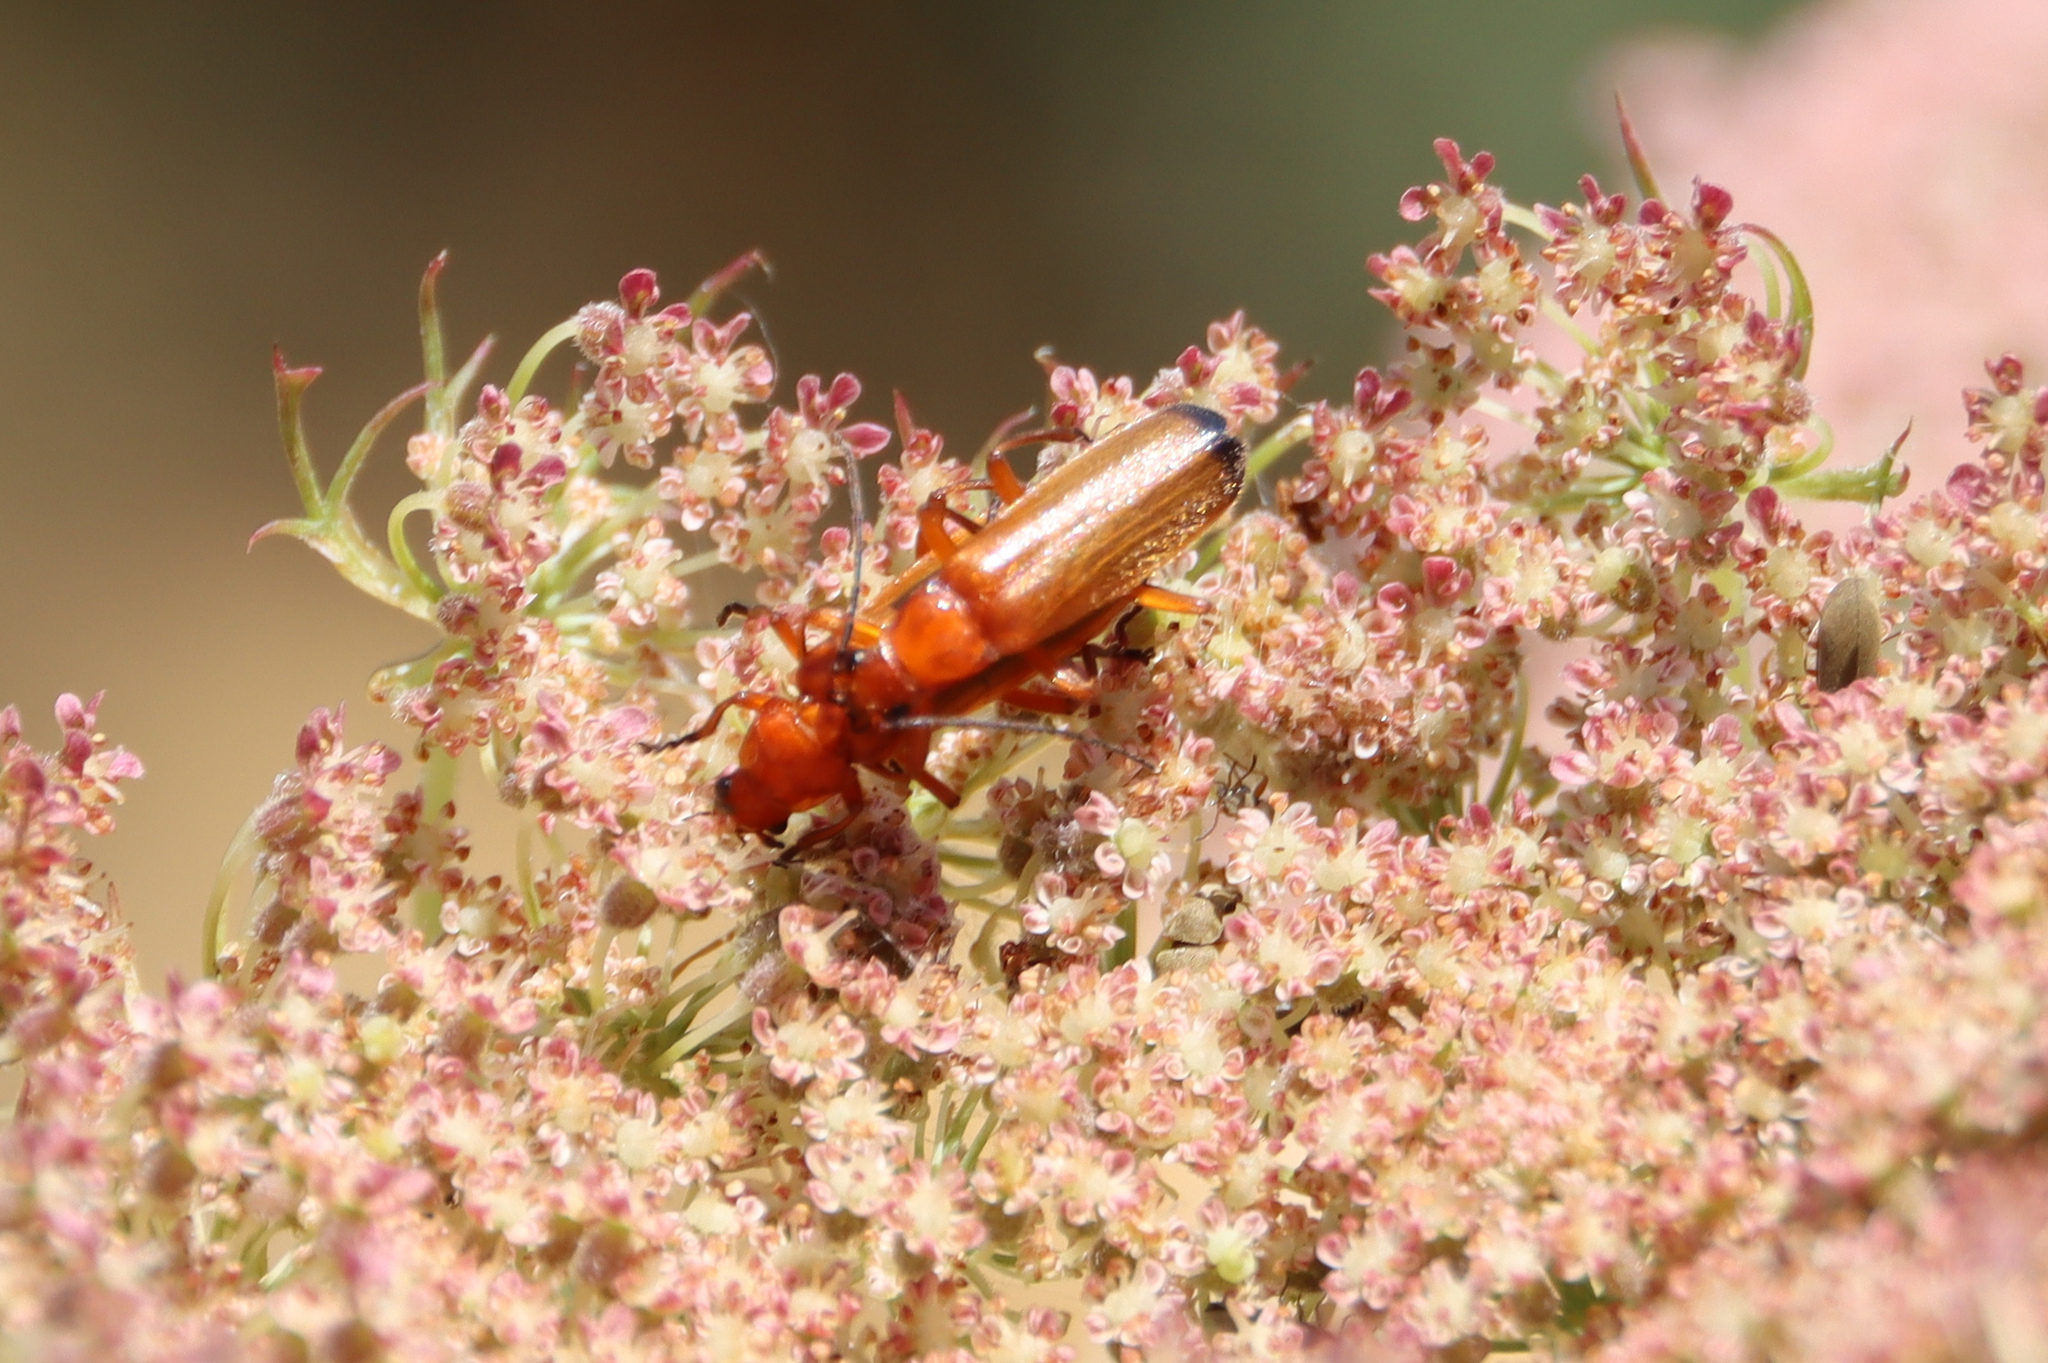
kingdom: Animalia
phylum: Arthropoda
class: Insecta
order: Coleoptera
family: Cantharidae
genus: Rhagonycha
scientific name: Rhagonycha fulva
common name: Common red soldier beetle
